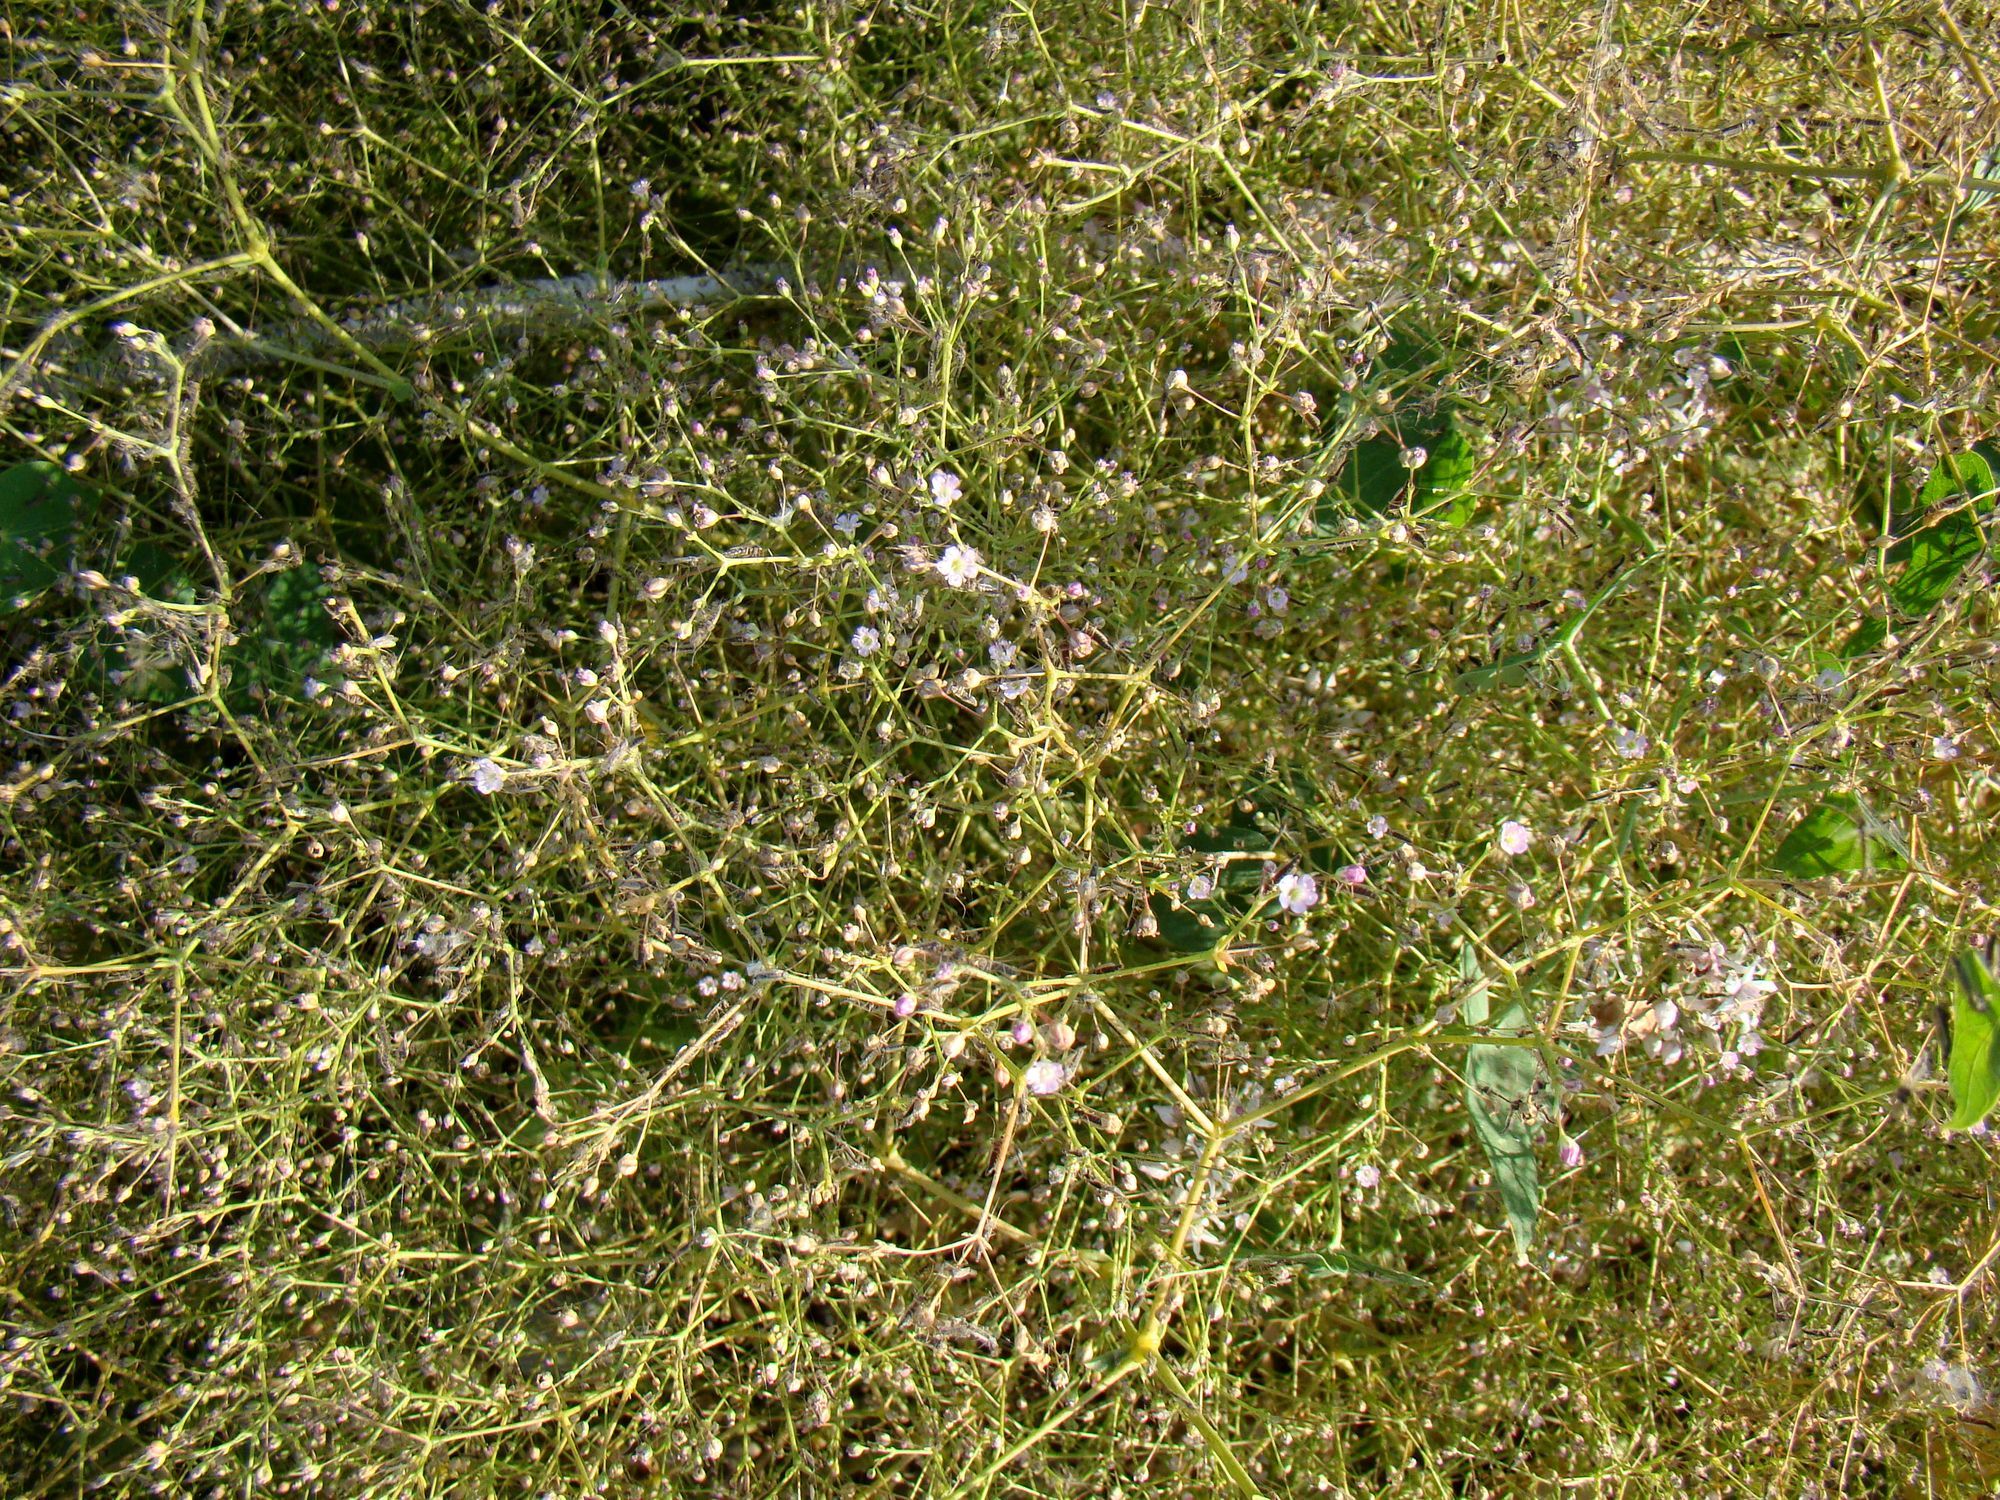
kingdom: Plantae
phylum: Tracheophyta
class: Magnoliopsida
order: Caryophyllales
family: Caryophyllaceae
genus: Gypsophila
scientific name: Gypsophila perfoliata
